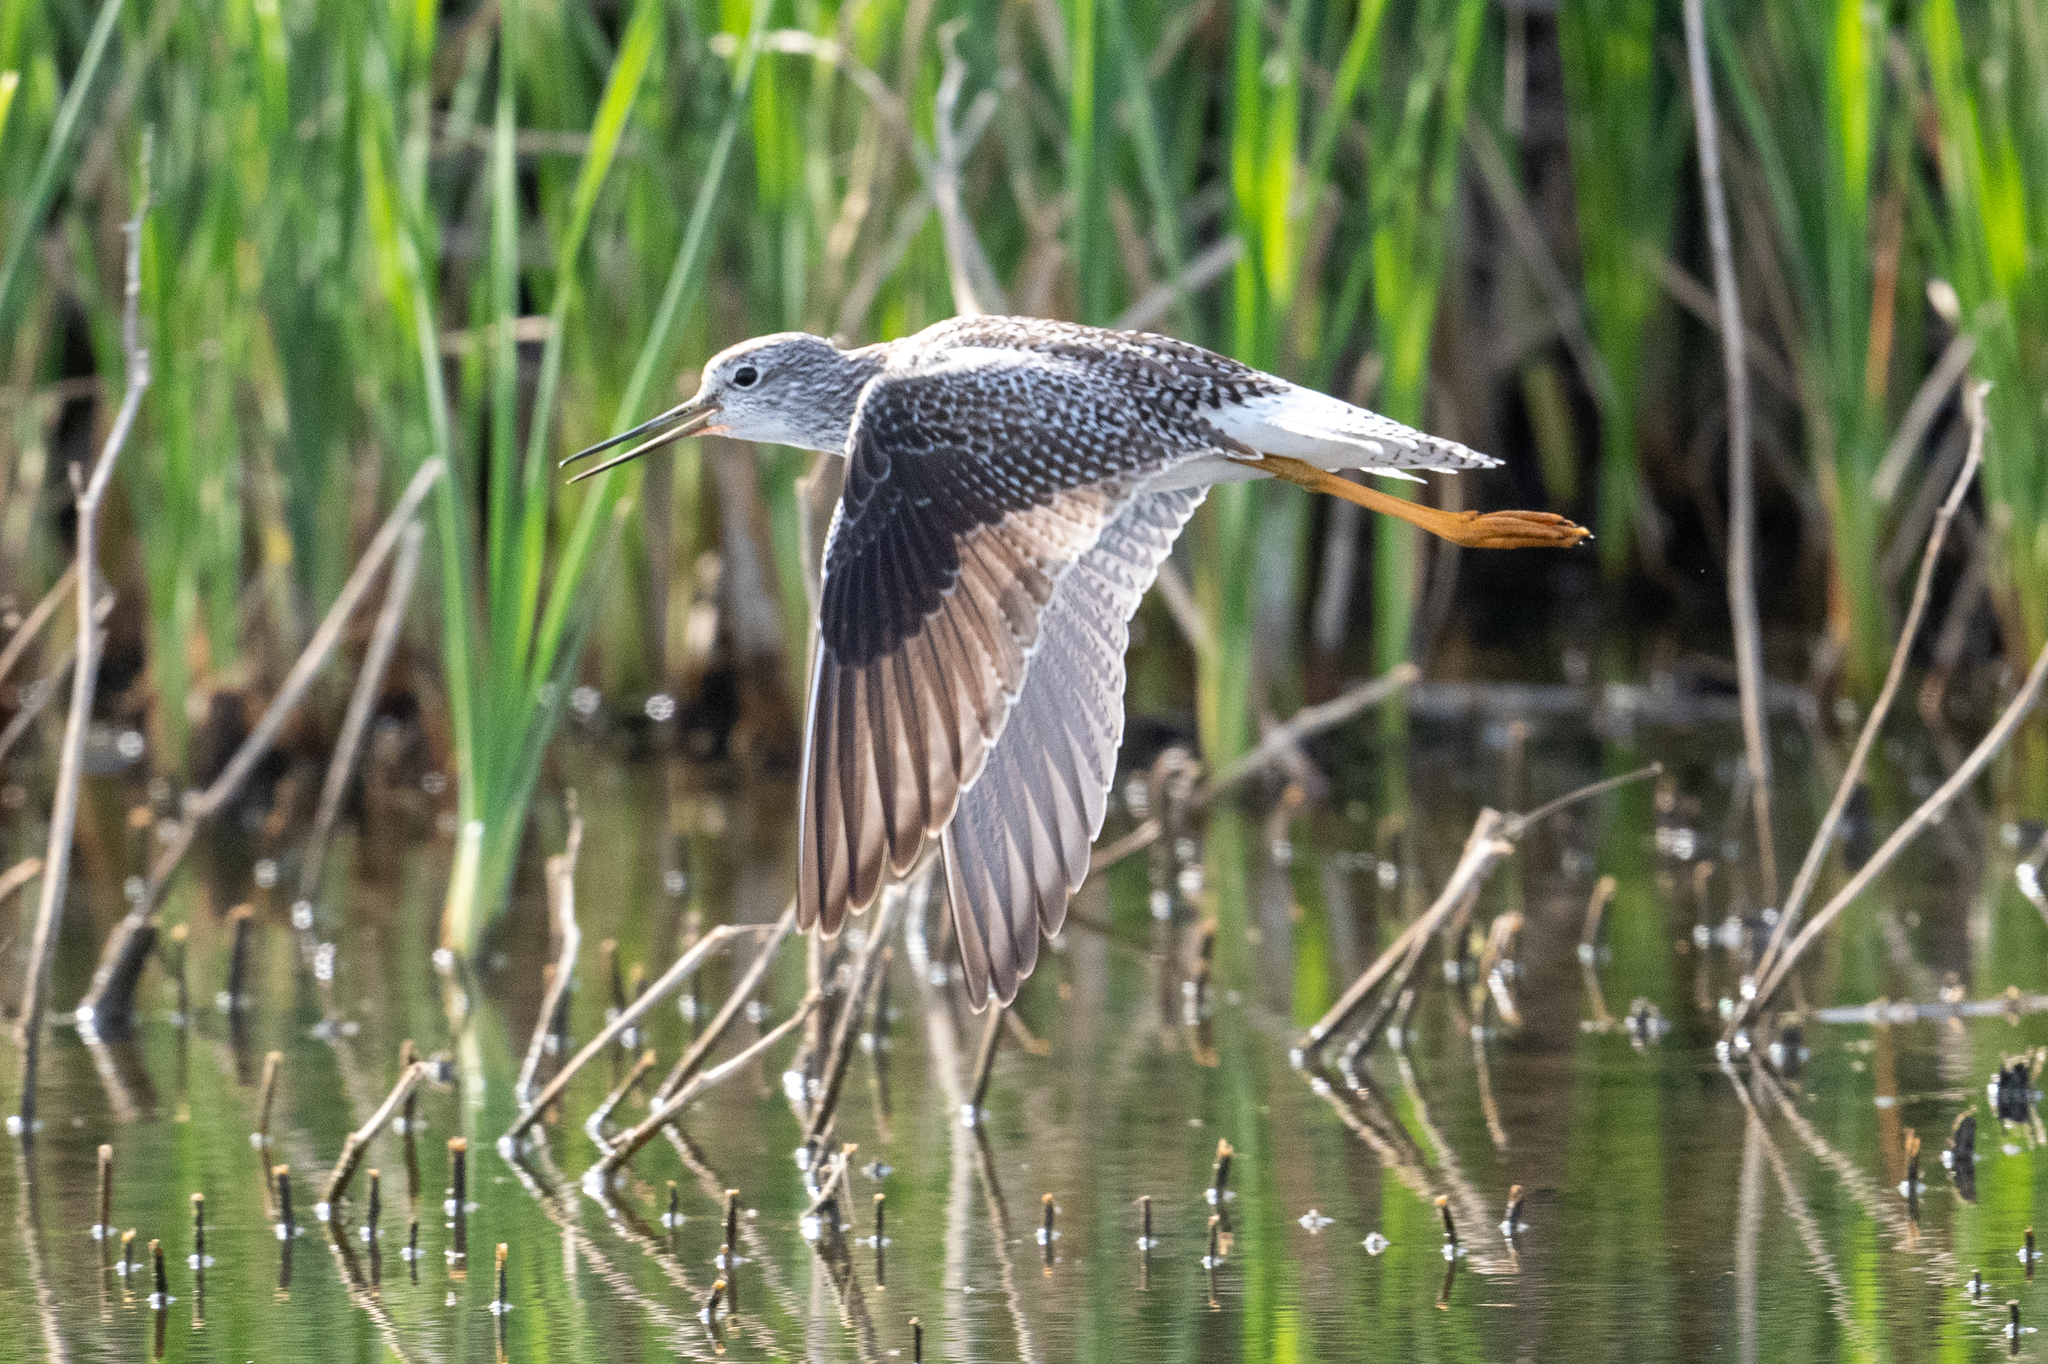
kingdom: Animalia
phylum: Chordata
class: Aves
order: Charadriiformes
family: Scolopacidae
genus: Tringa
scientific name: Tringa melanoleuca
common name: Greater yellowlegs
